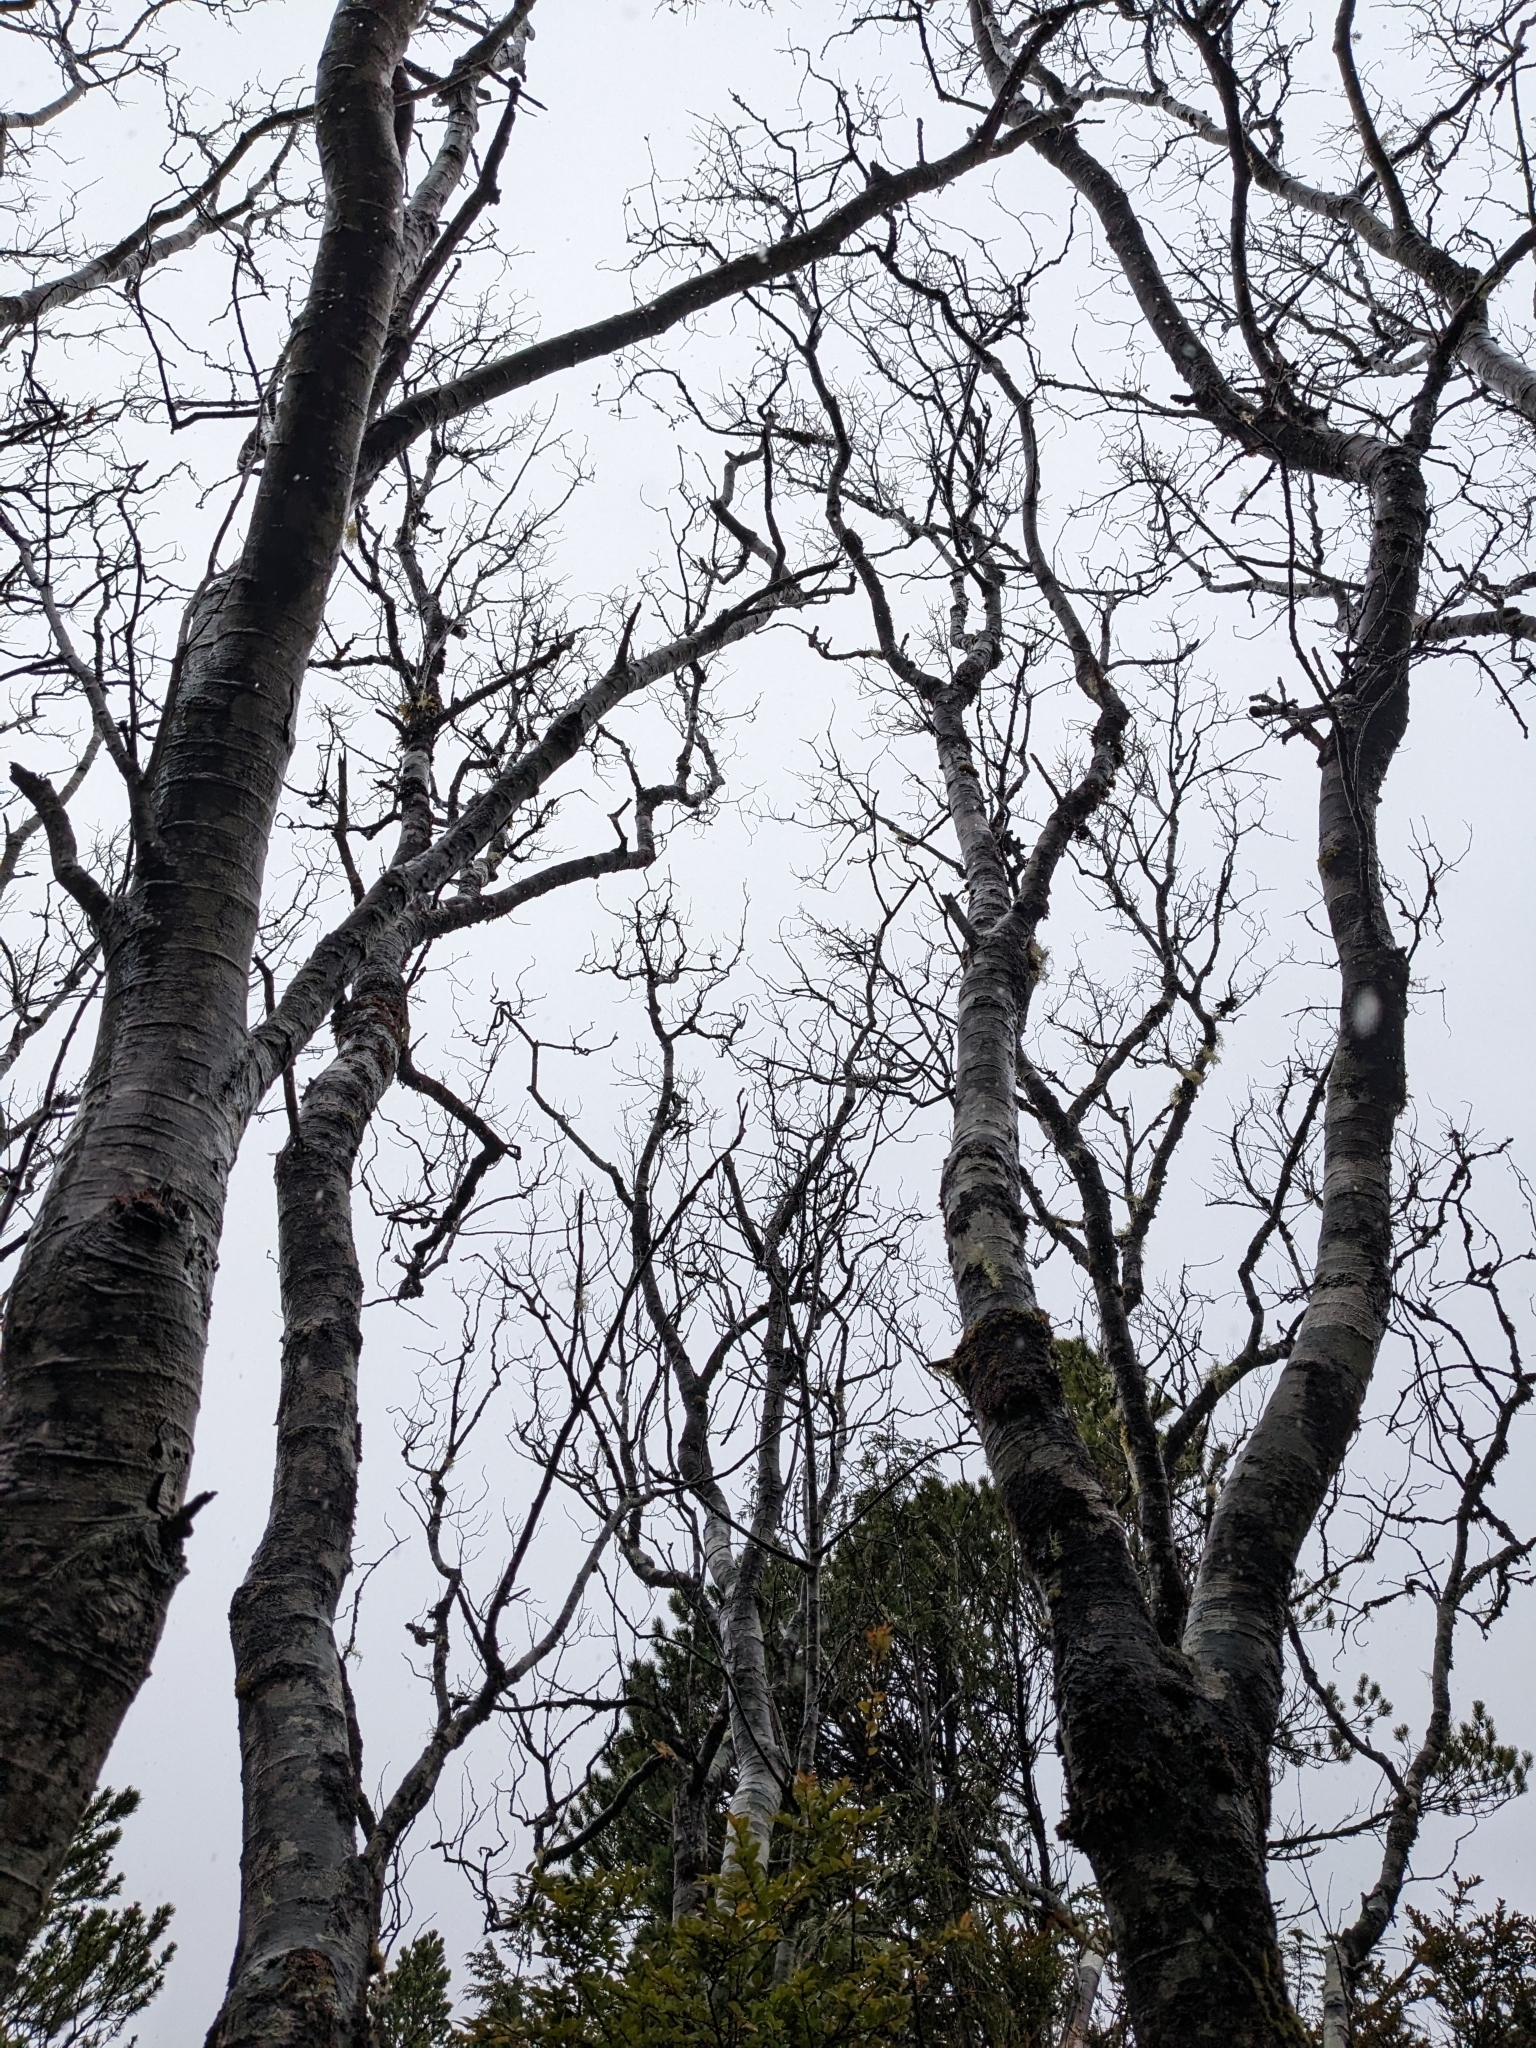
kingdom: Plantae
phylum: Tracheophyta
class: Magnoliopsida
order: Fagales
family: Betulaceae
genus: Alnus
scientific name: Alnus rubra
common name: Red alder
